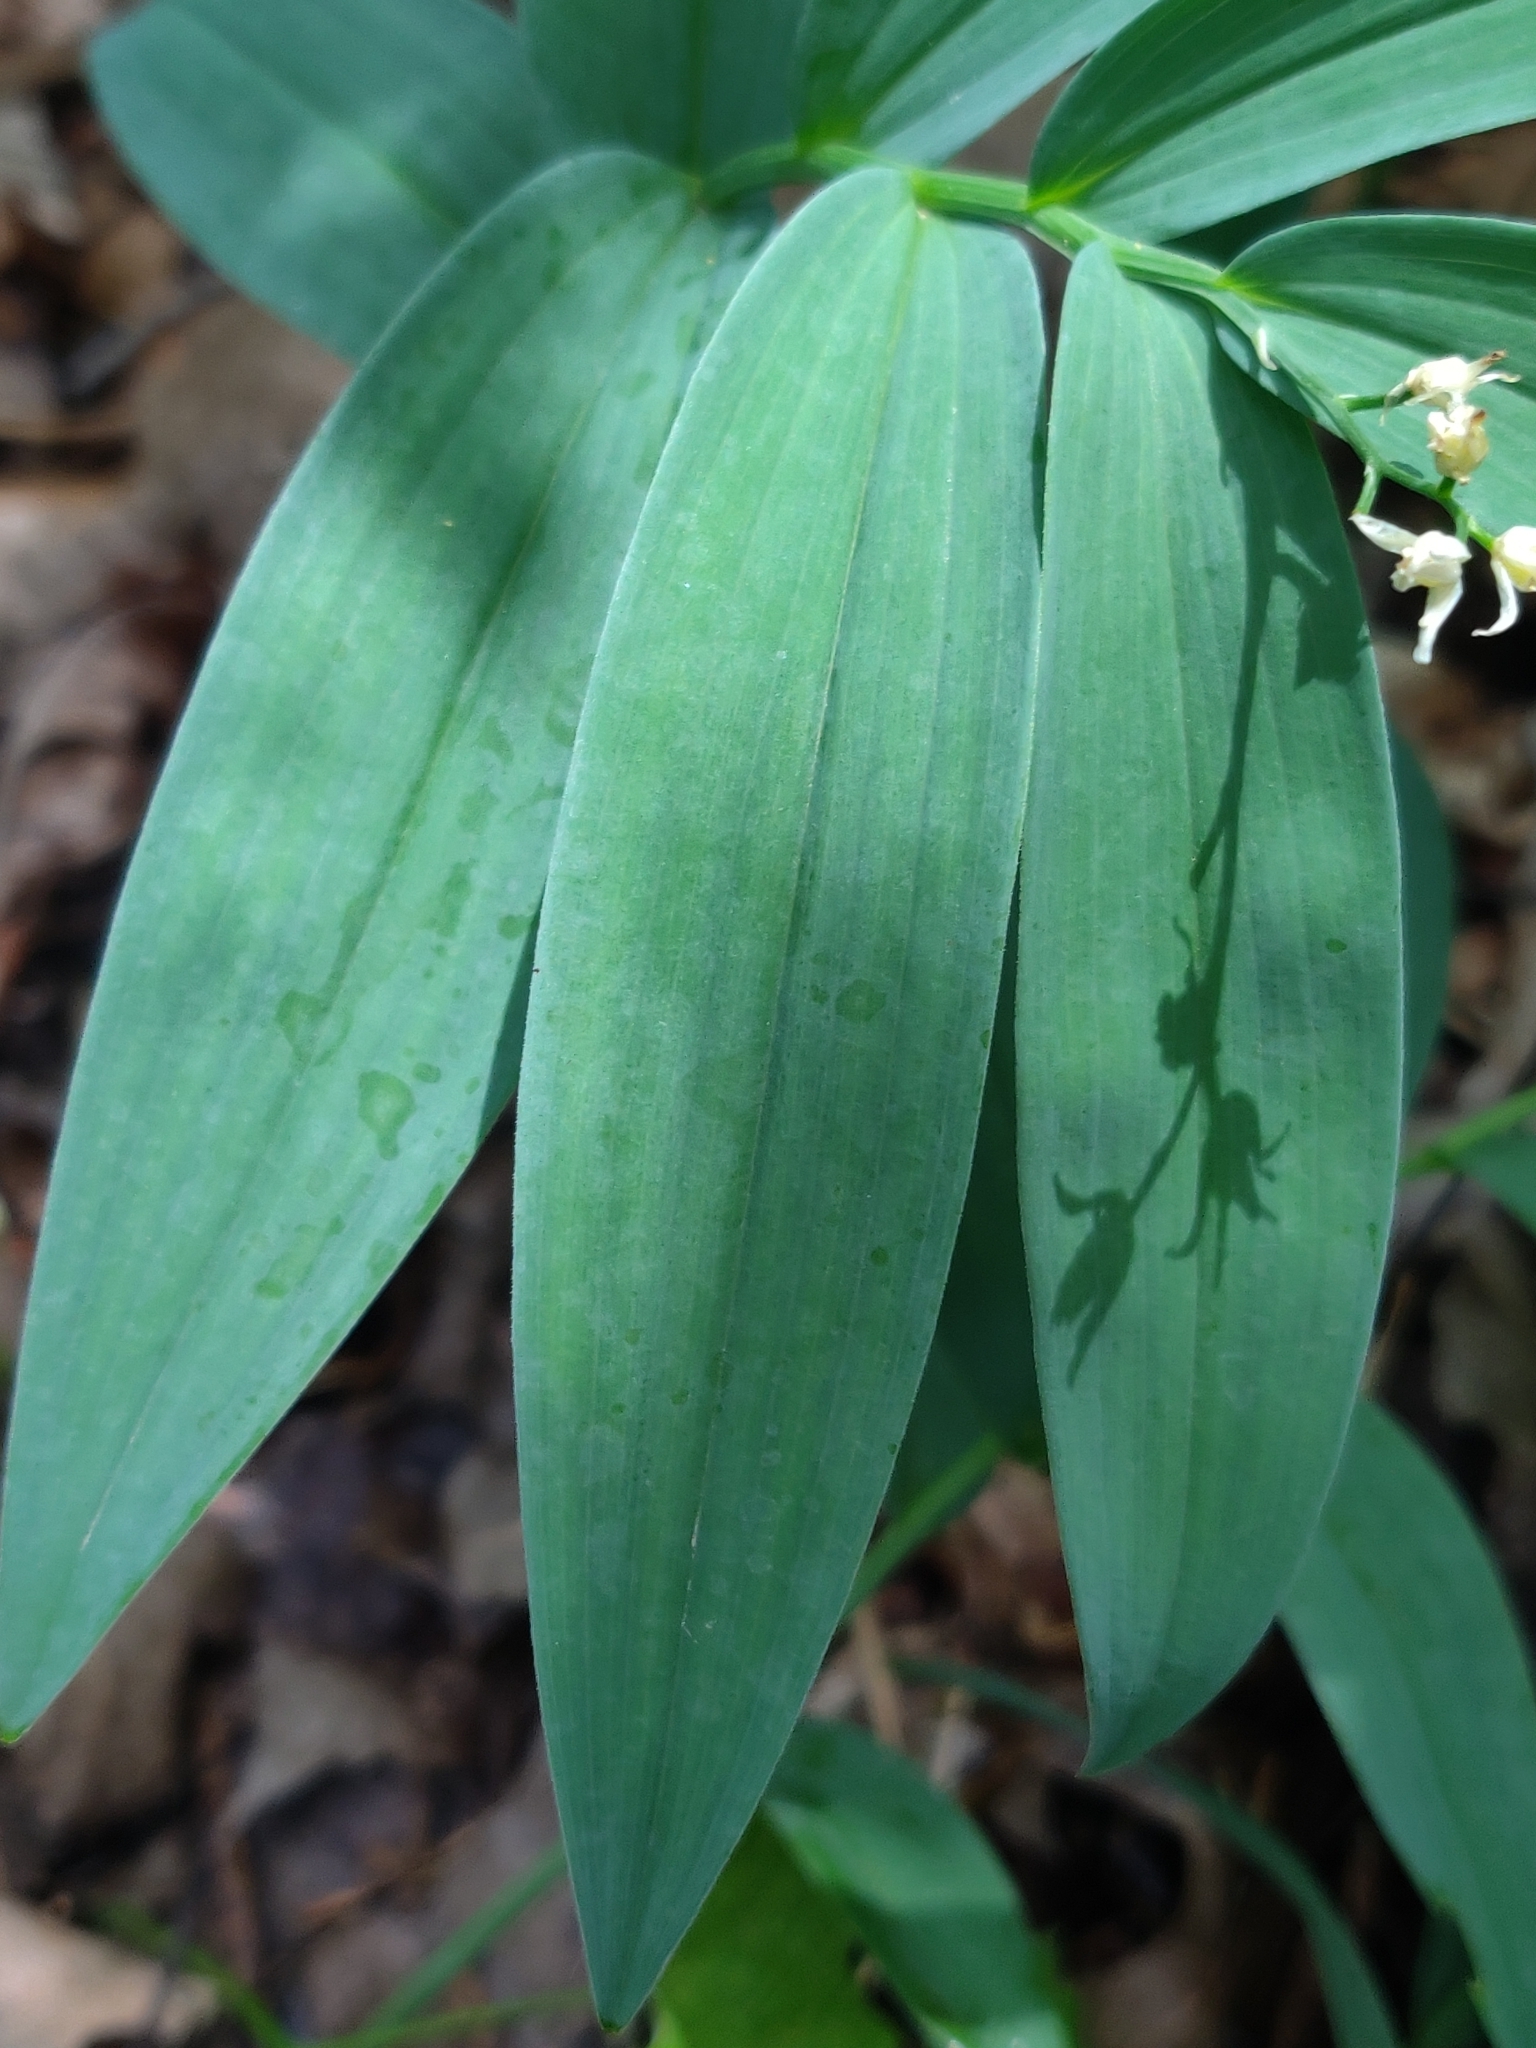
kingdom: Plantae
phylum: Tracheophyta
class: Liliopsida
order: Asparagales
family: Asparagaceae
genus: Maianthemum
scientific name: Maianthemum stellatum
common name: Little false solomon's seal
